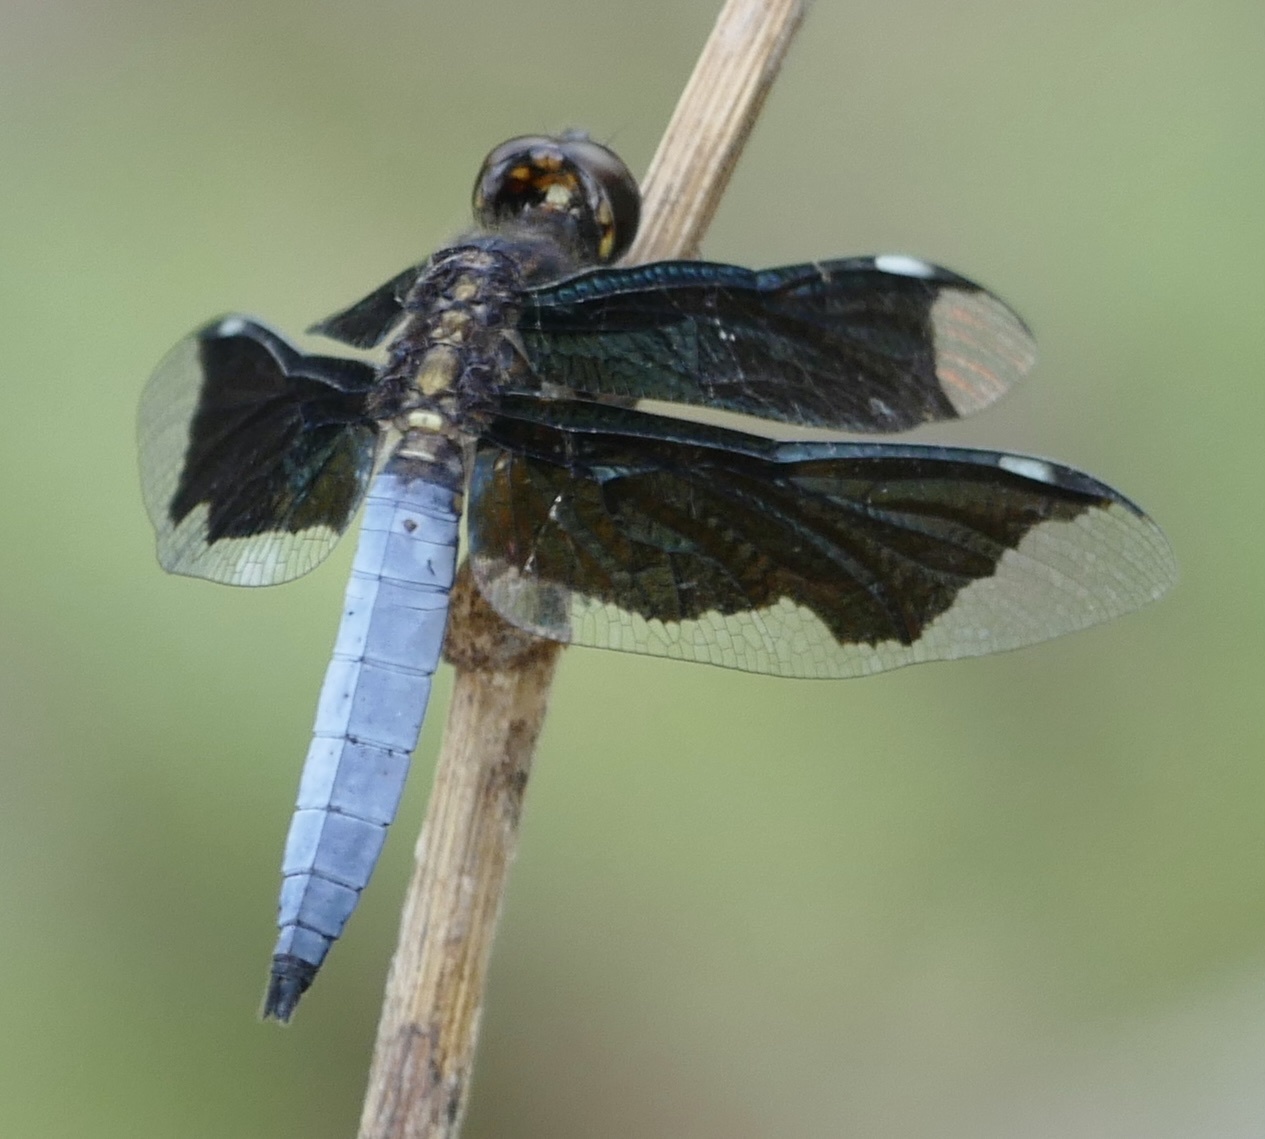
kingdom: Animalia
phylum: Arthropoda
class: Insecta
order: Odonata
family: Libellulidae
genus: Palpopleura
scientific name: Palpopleura lucia
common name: Lucia widow
